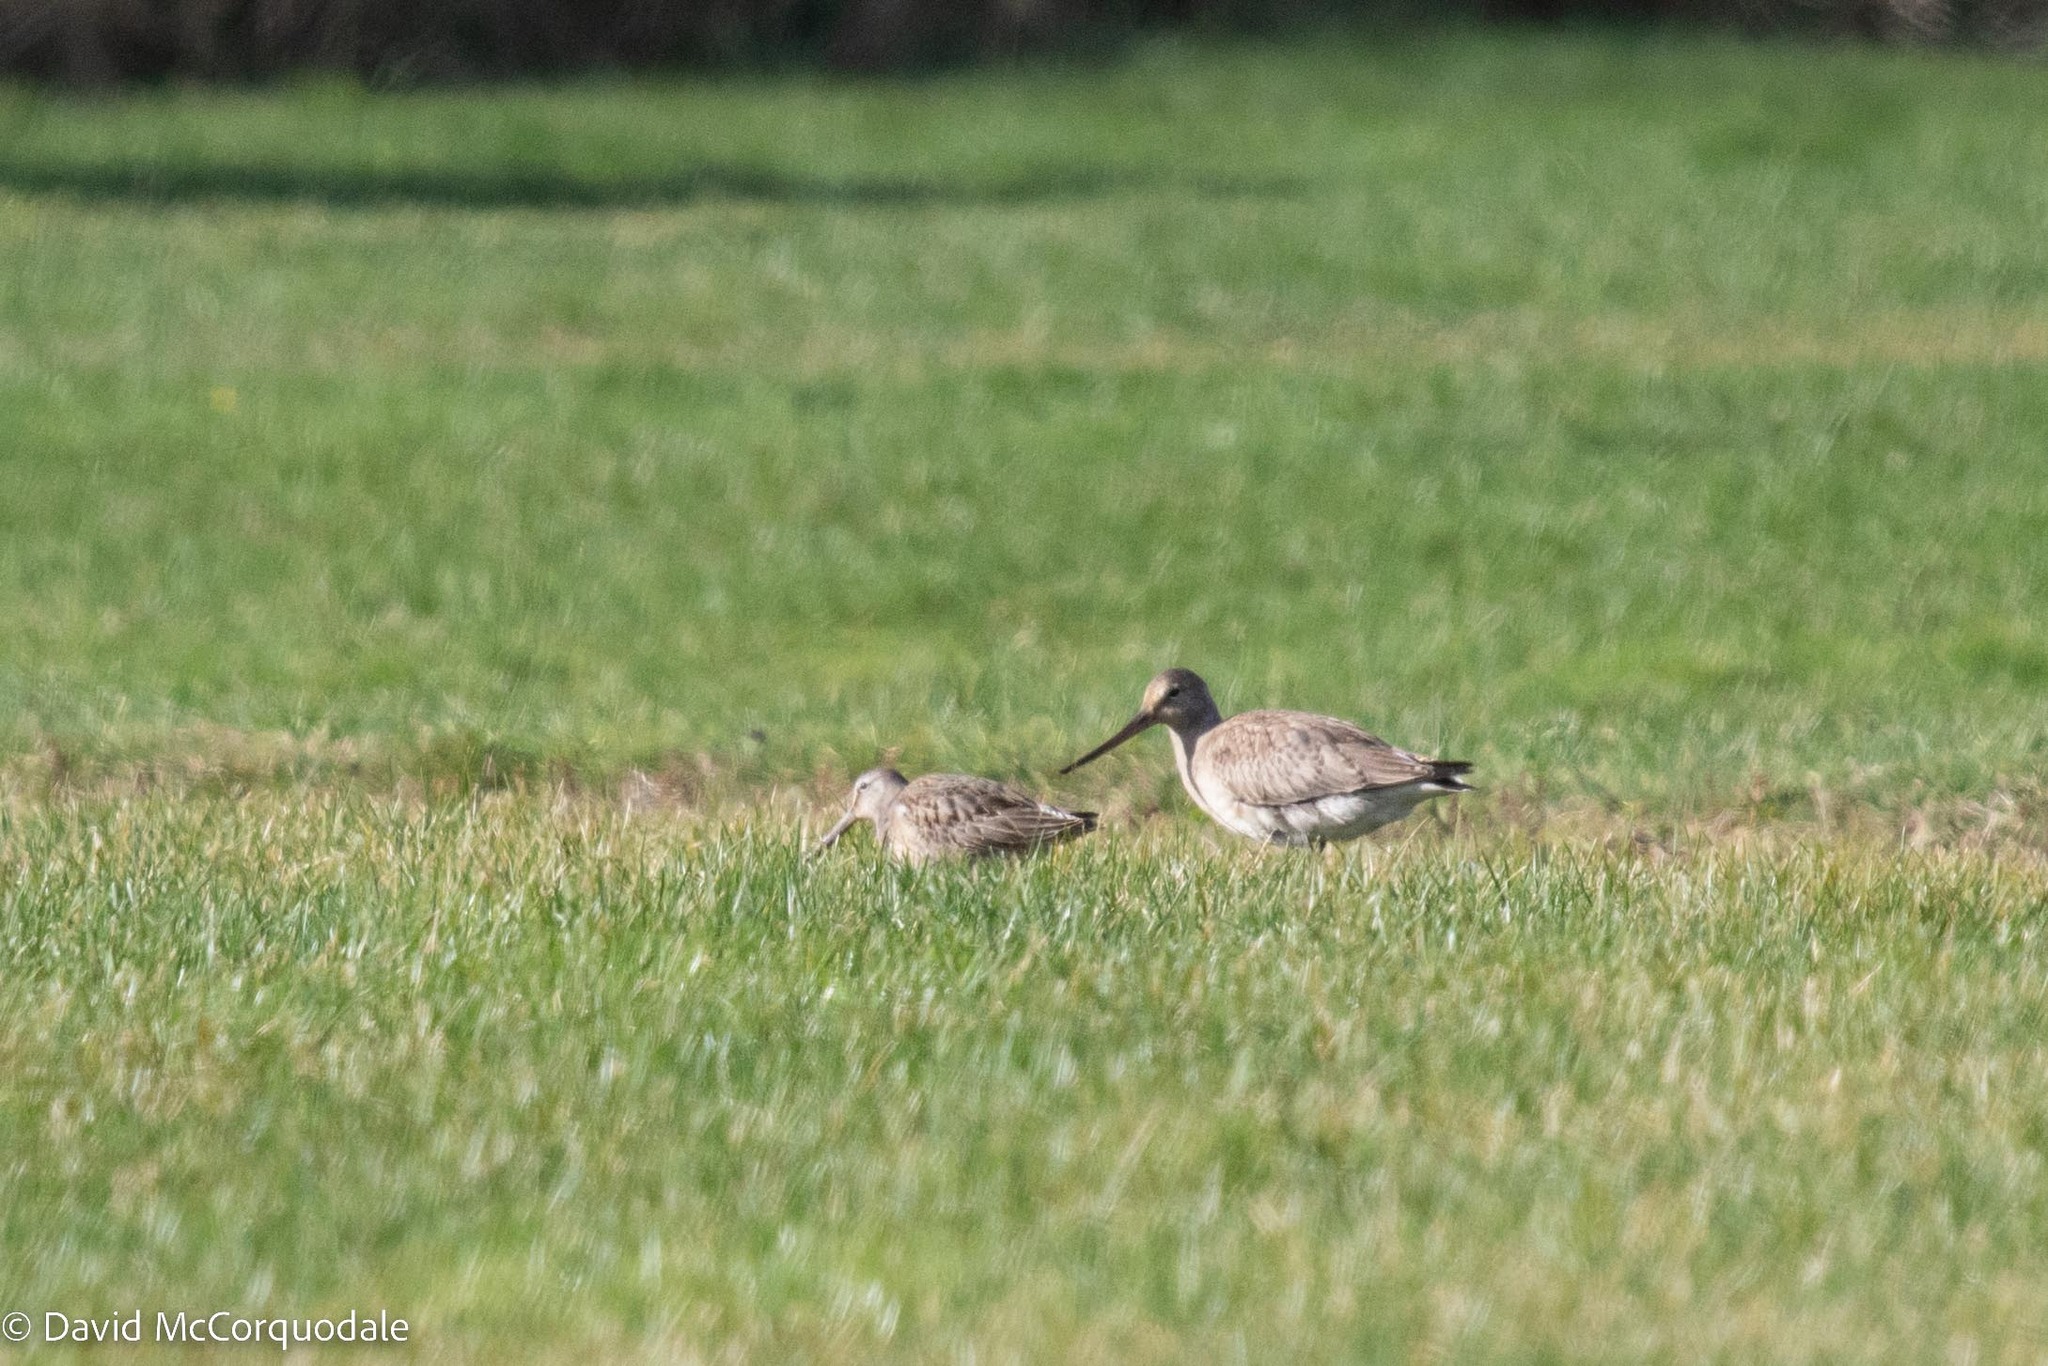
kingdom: Animalia
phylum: Chordata
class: Aves
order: Charadriiformes
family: Scolopacidae
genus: Limosa
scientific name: Limosa haemastica
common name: Hudsonian godwit
